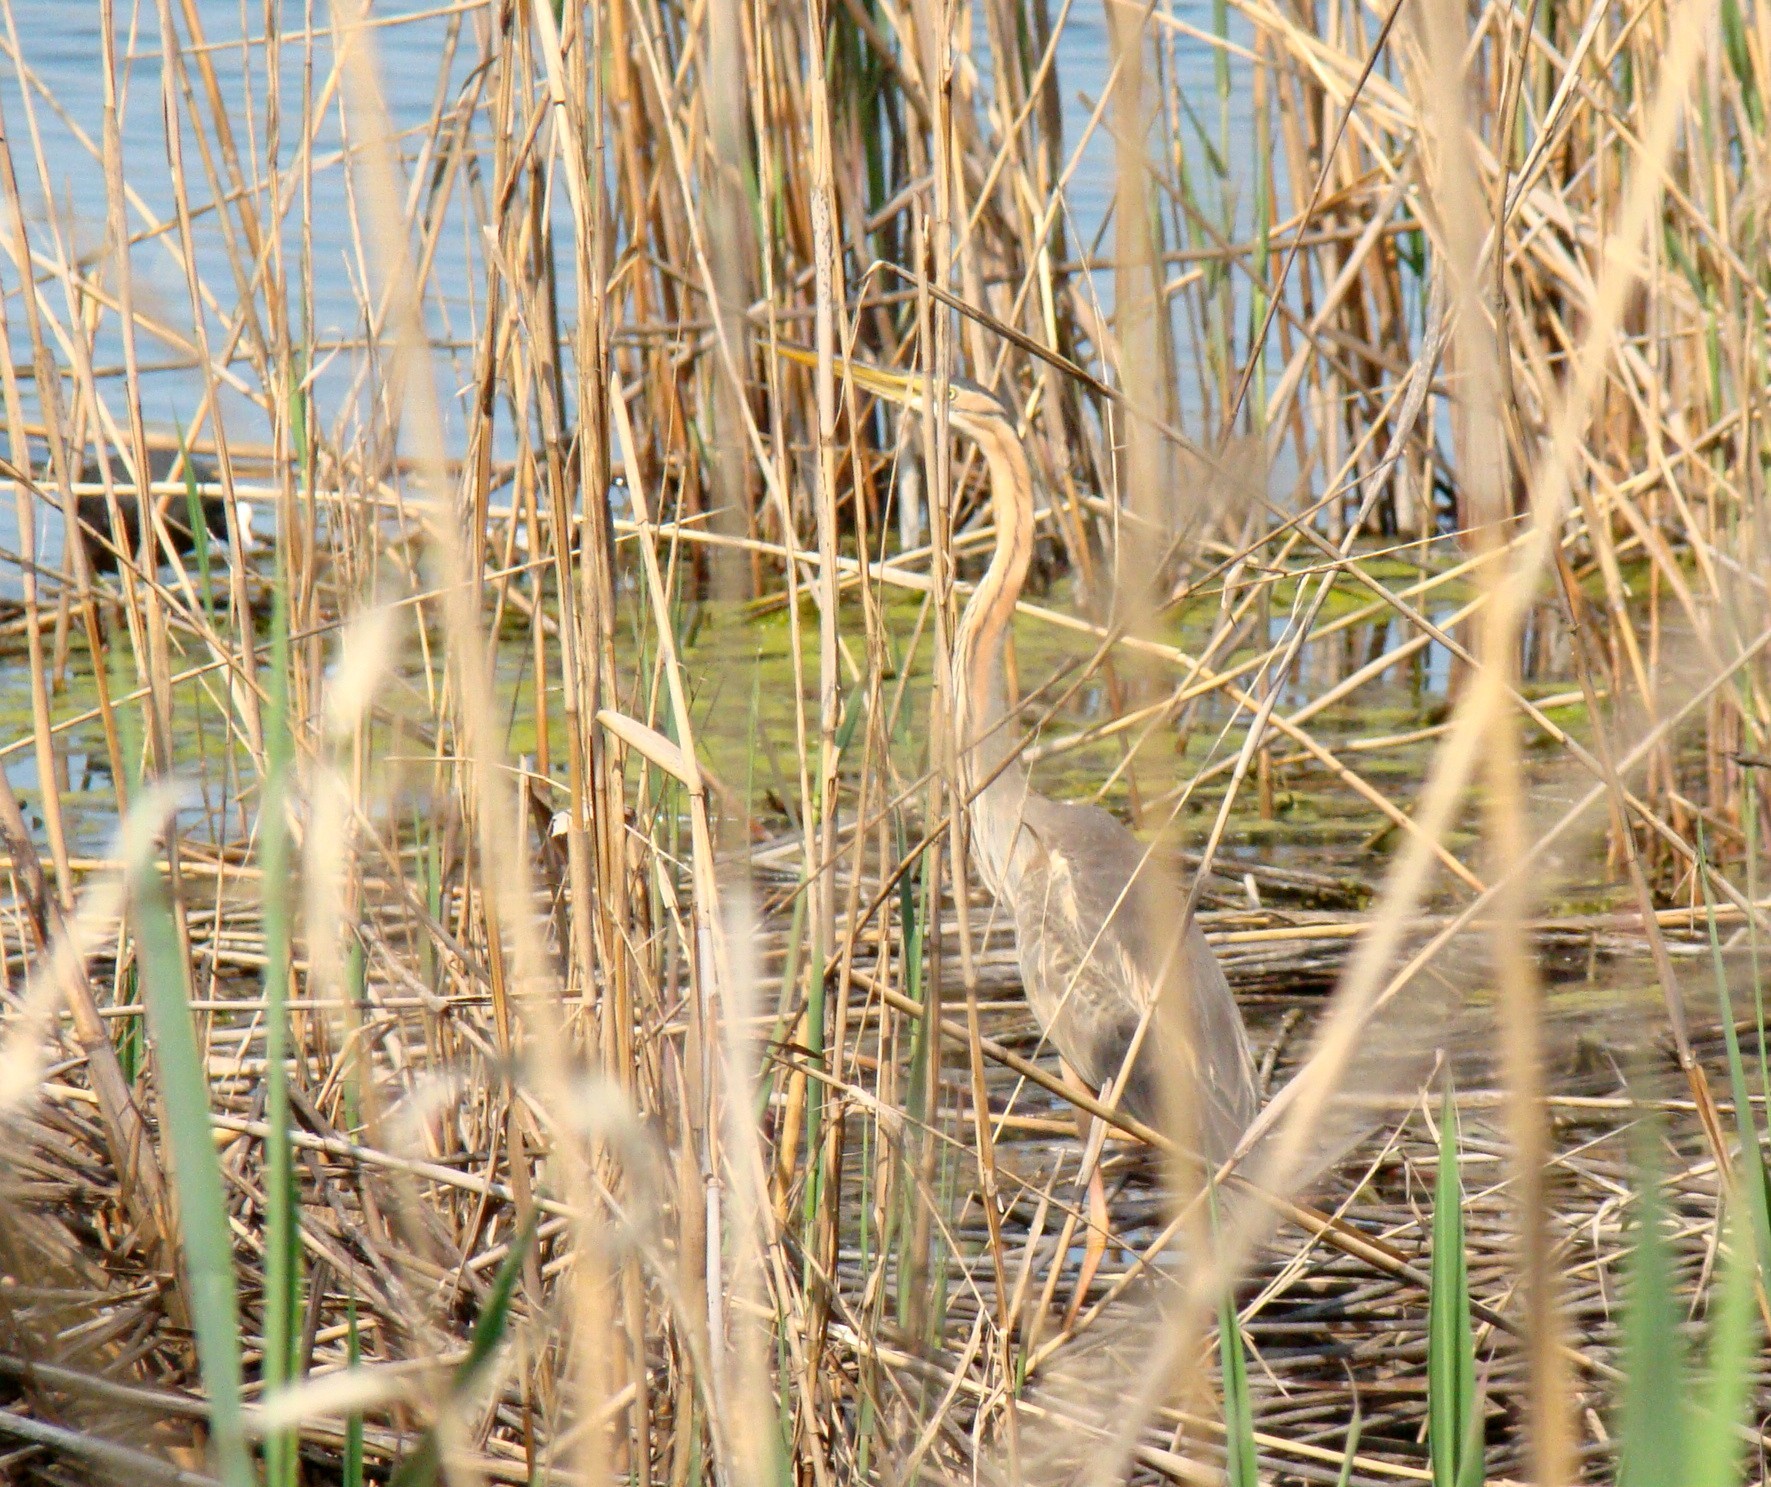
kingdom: Animalia
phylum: Chordata
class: Aves
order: Pelecaniformes
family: Ardeidae
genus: Ardea
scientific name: Ardea purpurea
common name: Purple heron
